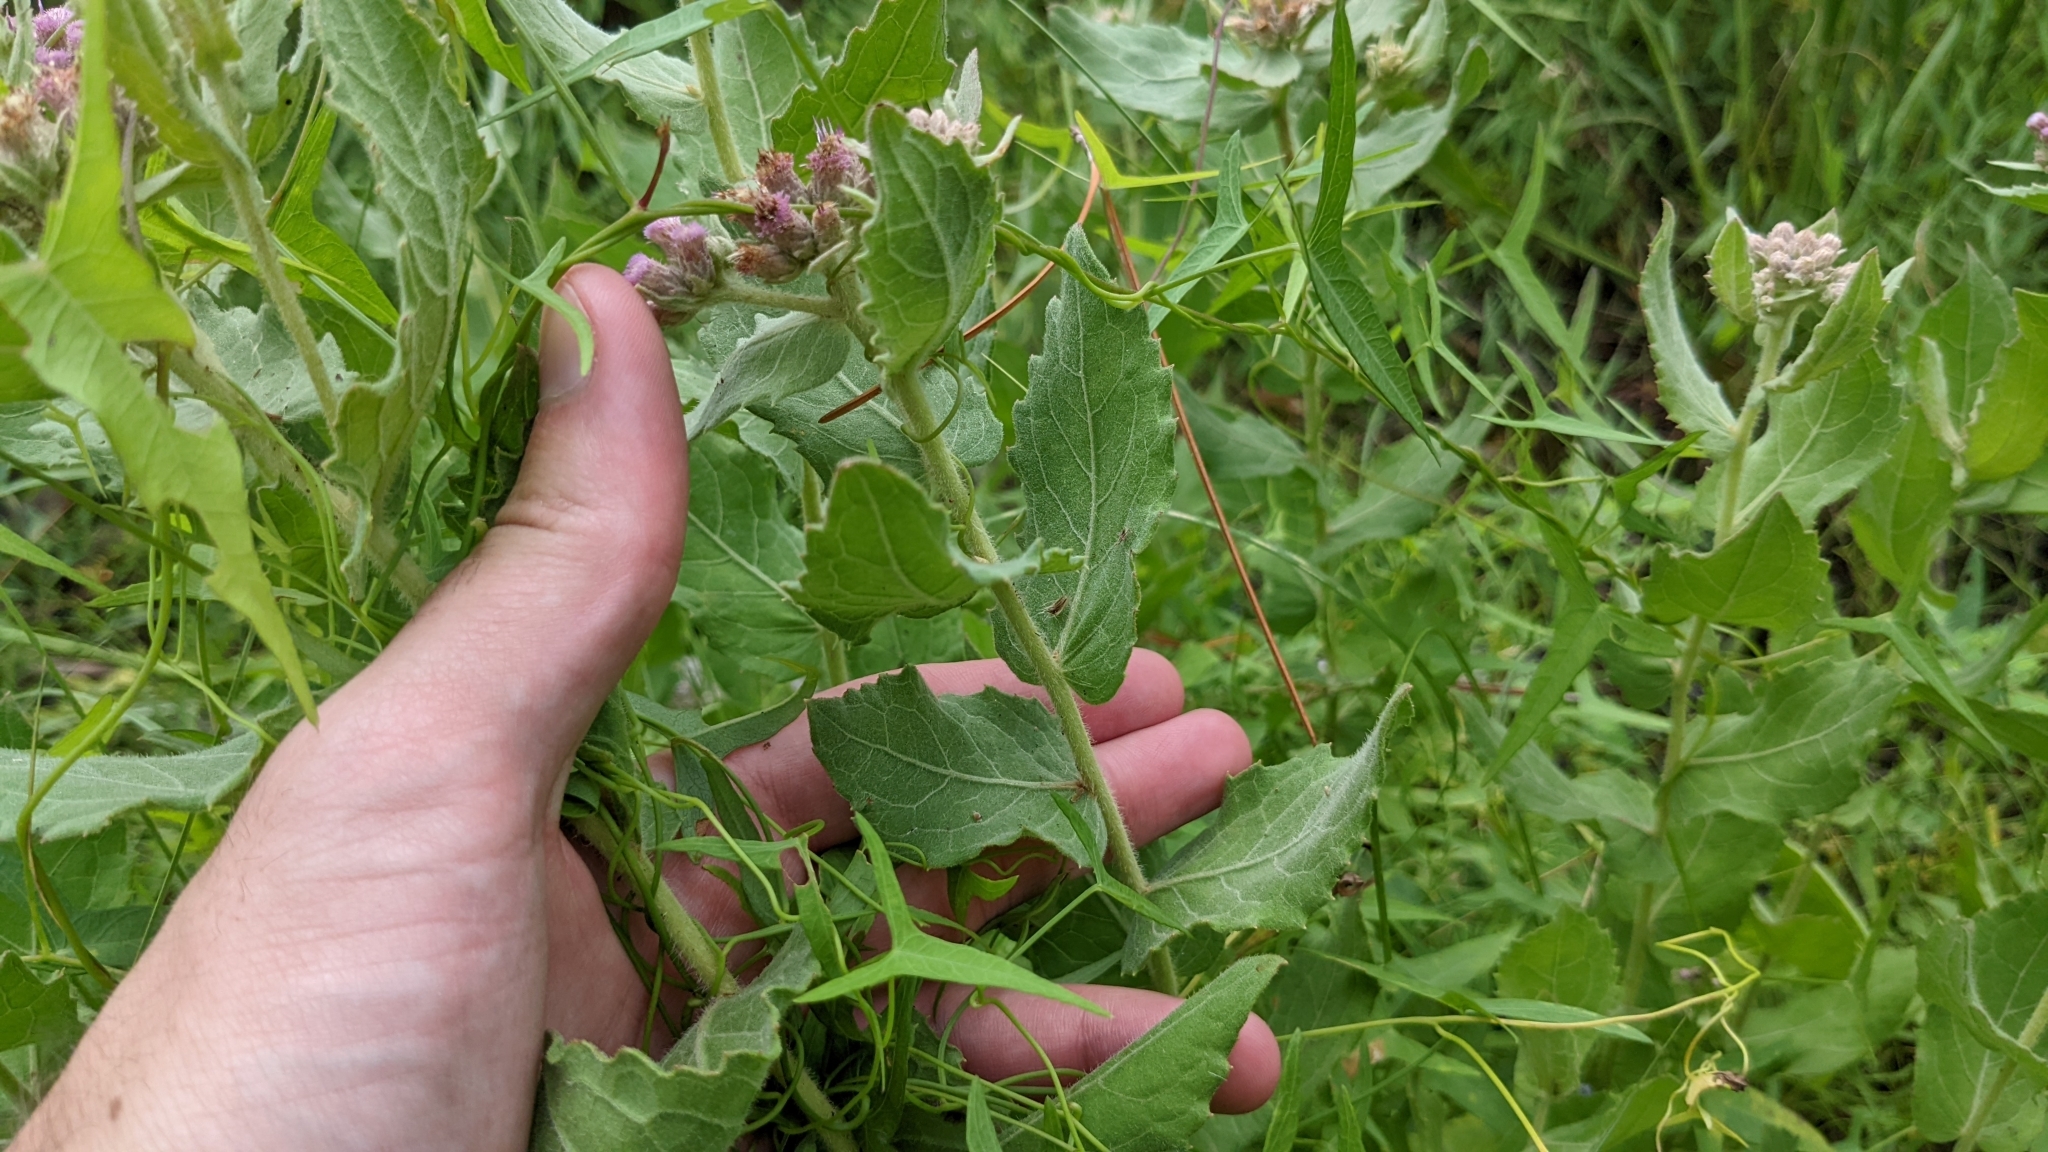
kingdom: Plantae
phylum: Tracheophyta
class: Magnoliopsida
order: Asterales
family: Asteraceae
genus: Pluchea
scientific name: Pluchea baccharis
